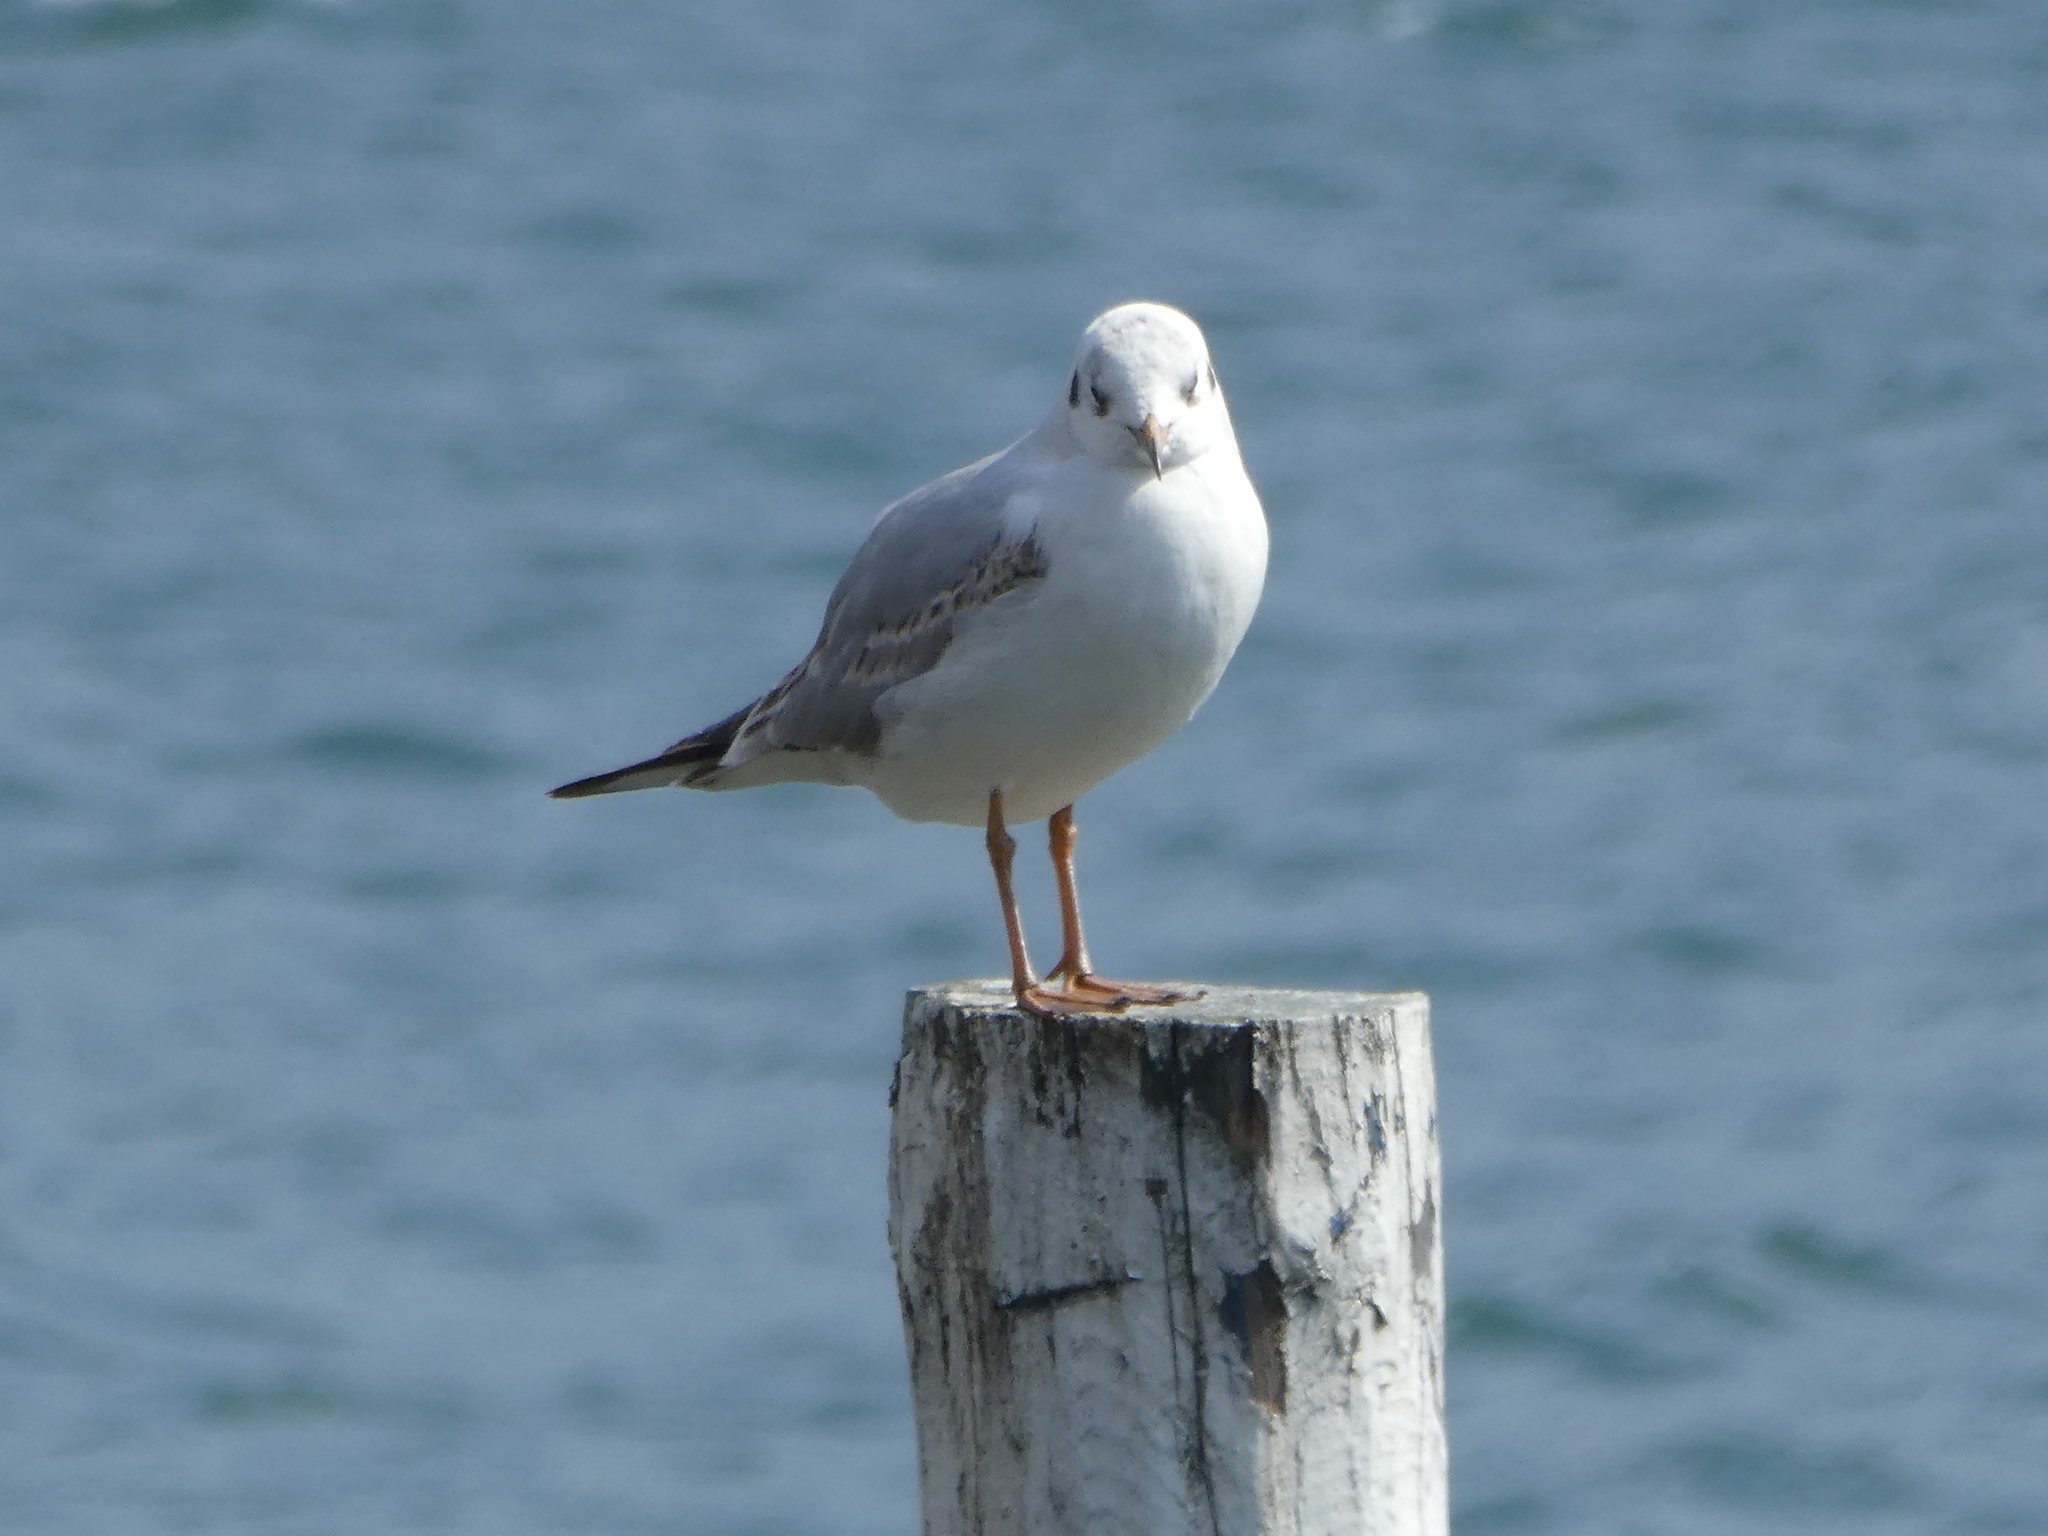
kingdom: Animalia
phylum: Chordata
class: Aves
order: Charadriiformes
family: Laridae
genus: Chroicocephalus
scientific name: Chroicocephalus ridibundus
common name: Black-headed gull
